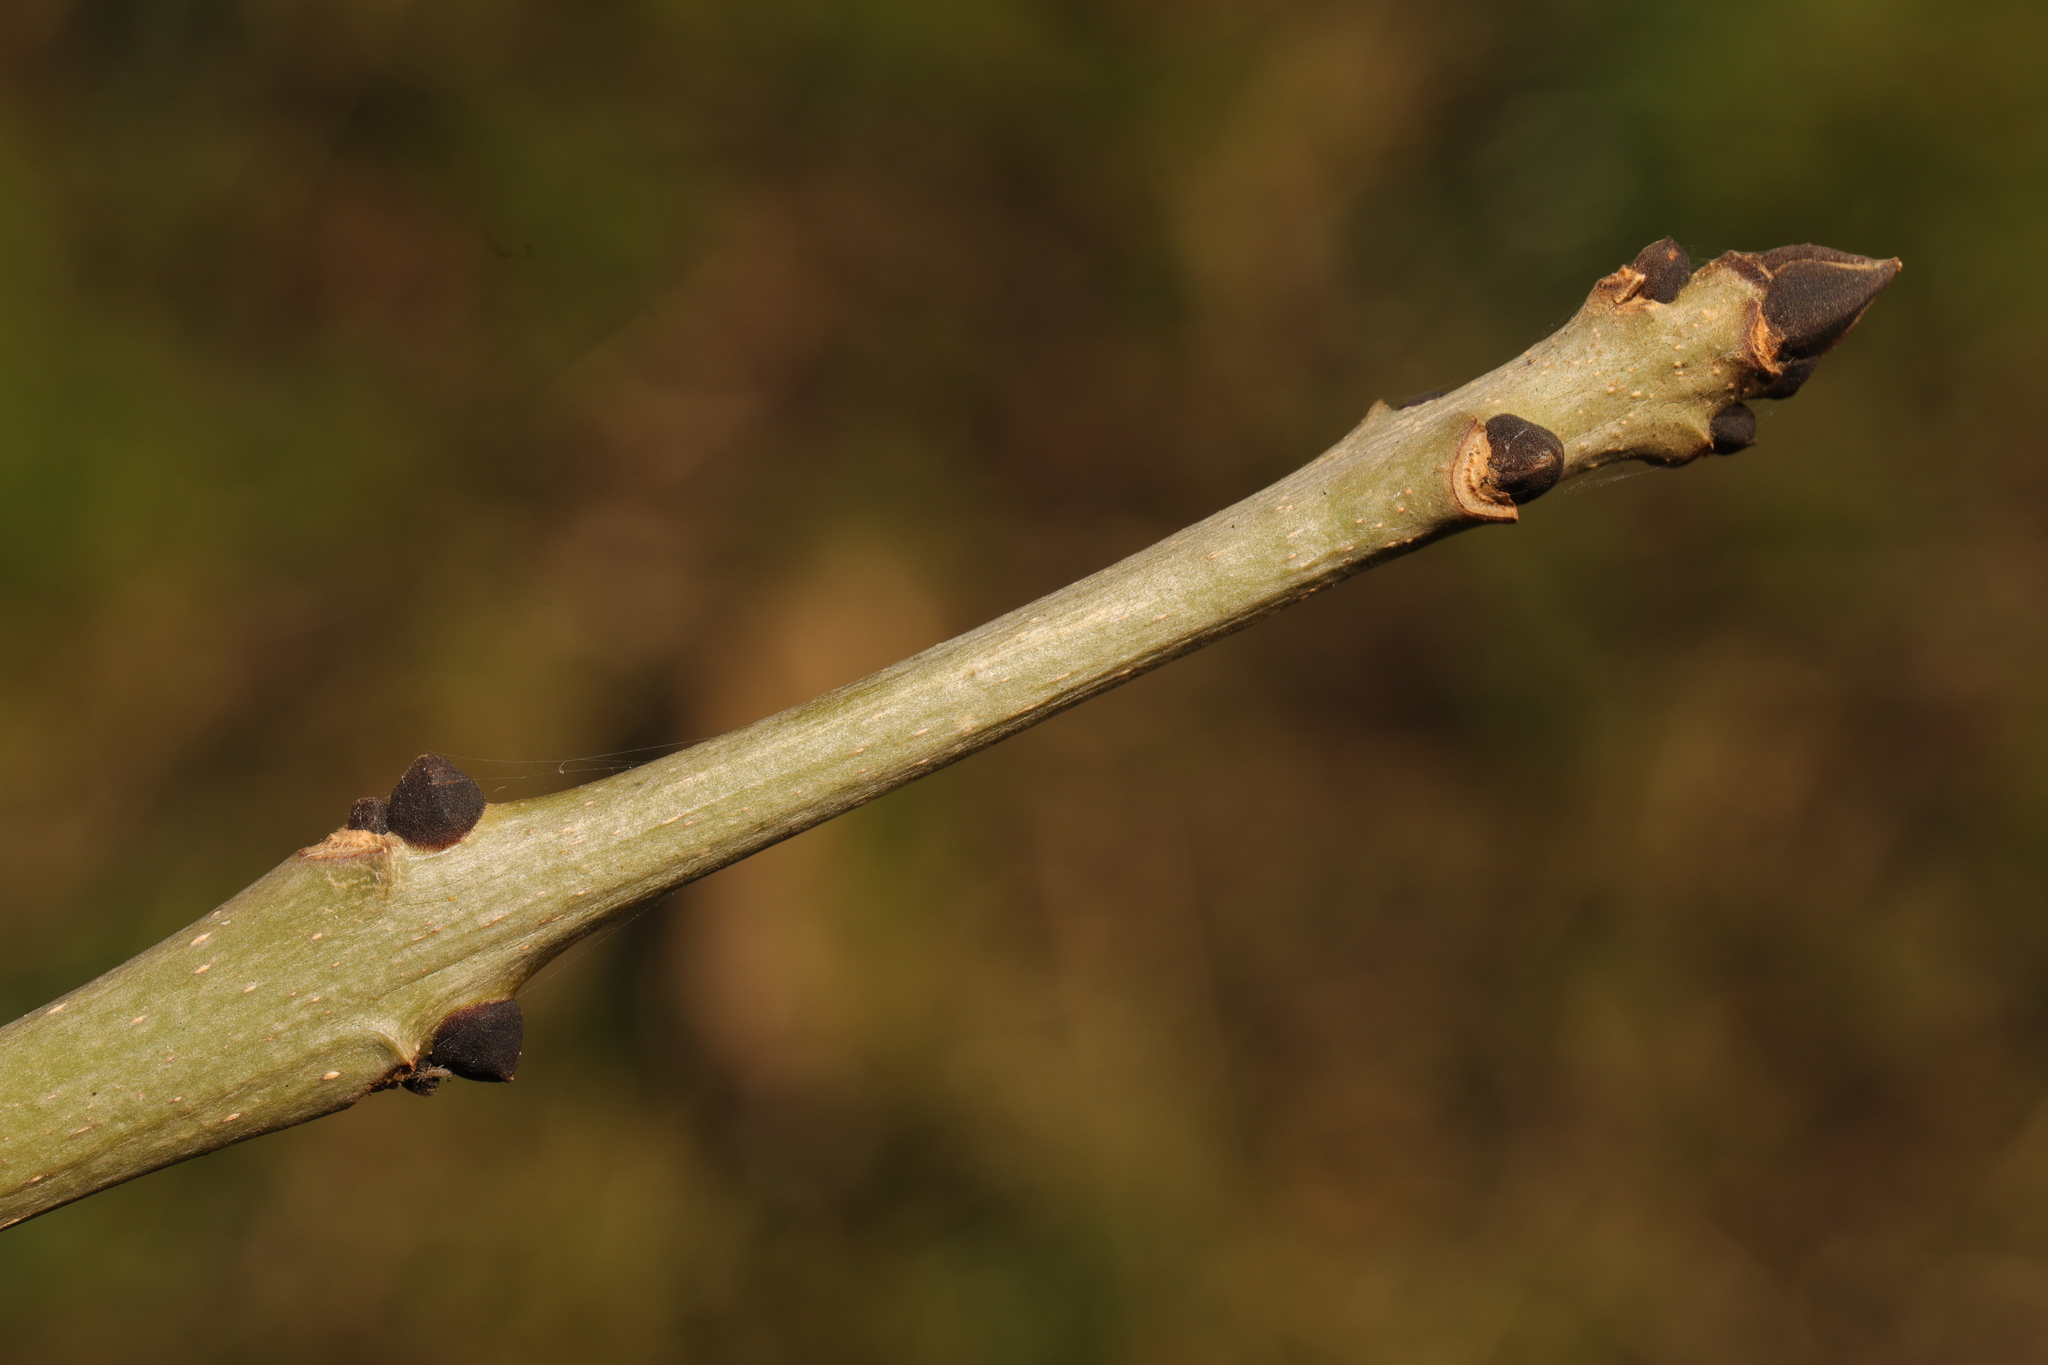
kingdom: Plantae
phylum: Tracheophyta
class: Magnoliopsida
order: Lamiales
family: Oleaceae
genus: Fraxinus
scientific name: Fraxinus excelsior
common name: European ash
